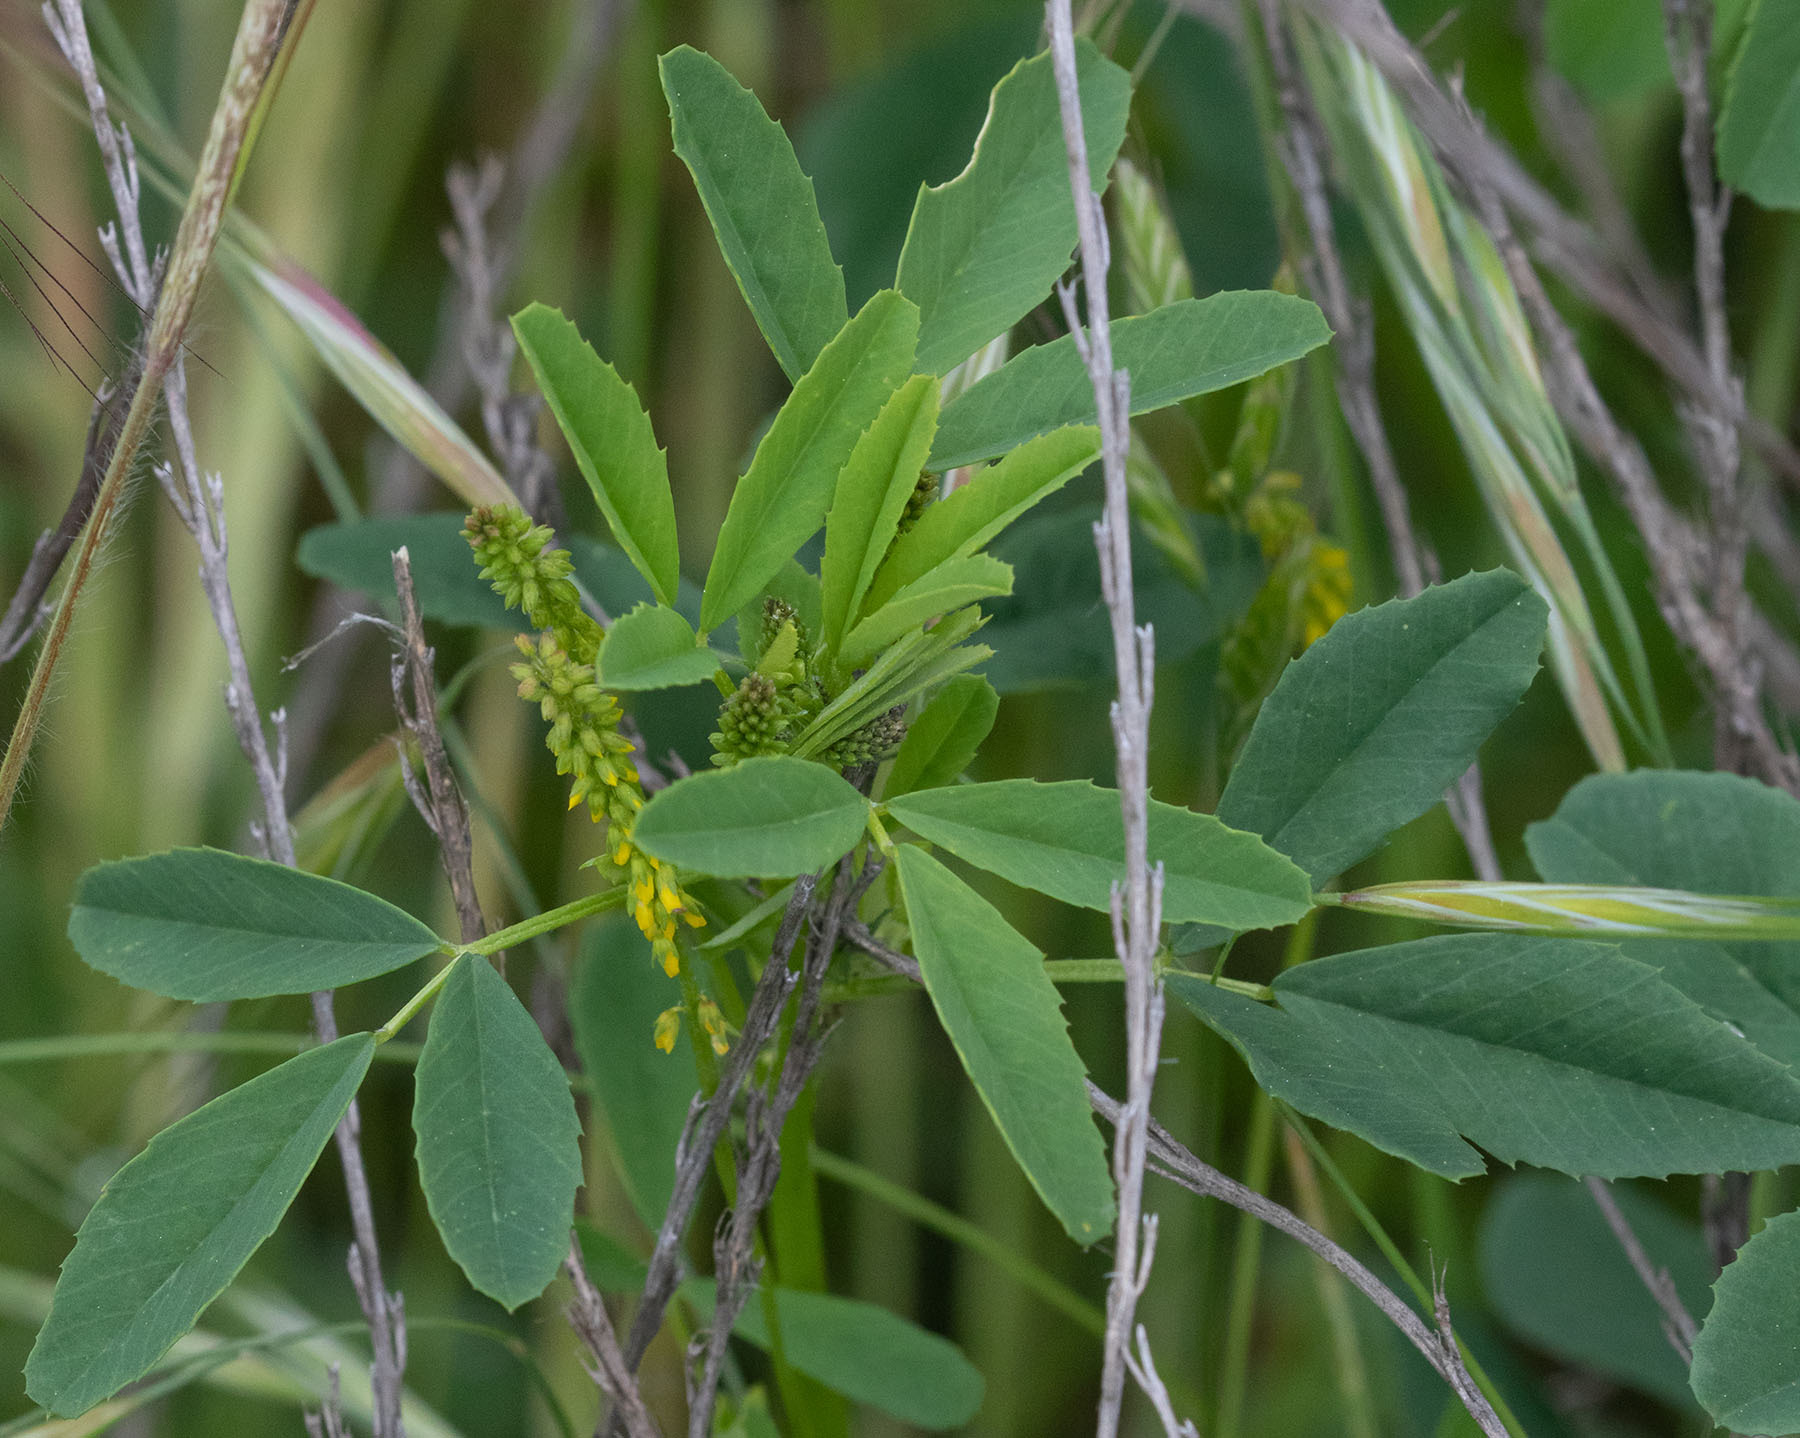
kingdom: Plantae
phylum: Tracheophyta
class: Magnoliopsida
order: Fabales
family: Fabaceae
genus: Melilotus
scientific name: Melilotus indicus
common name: Small melilot
